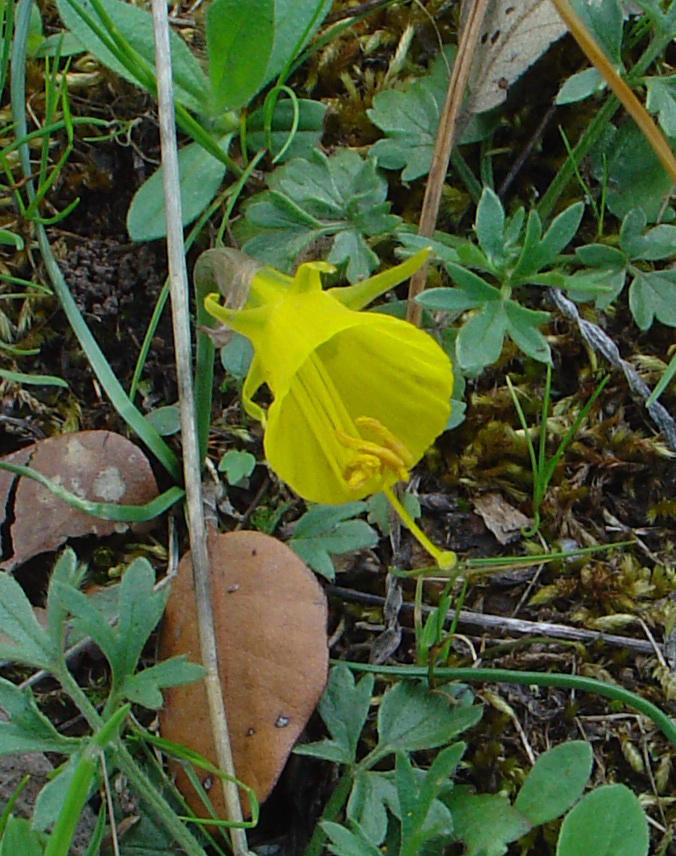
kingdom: Plantae
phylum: Tracheophyta
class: Liliopsida
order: Asparagales
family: Amaryllidaceae
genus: Narcissus
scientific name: Narcissus bulbocodium
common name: Hoop-petticoat daffodil
